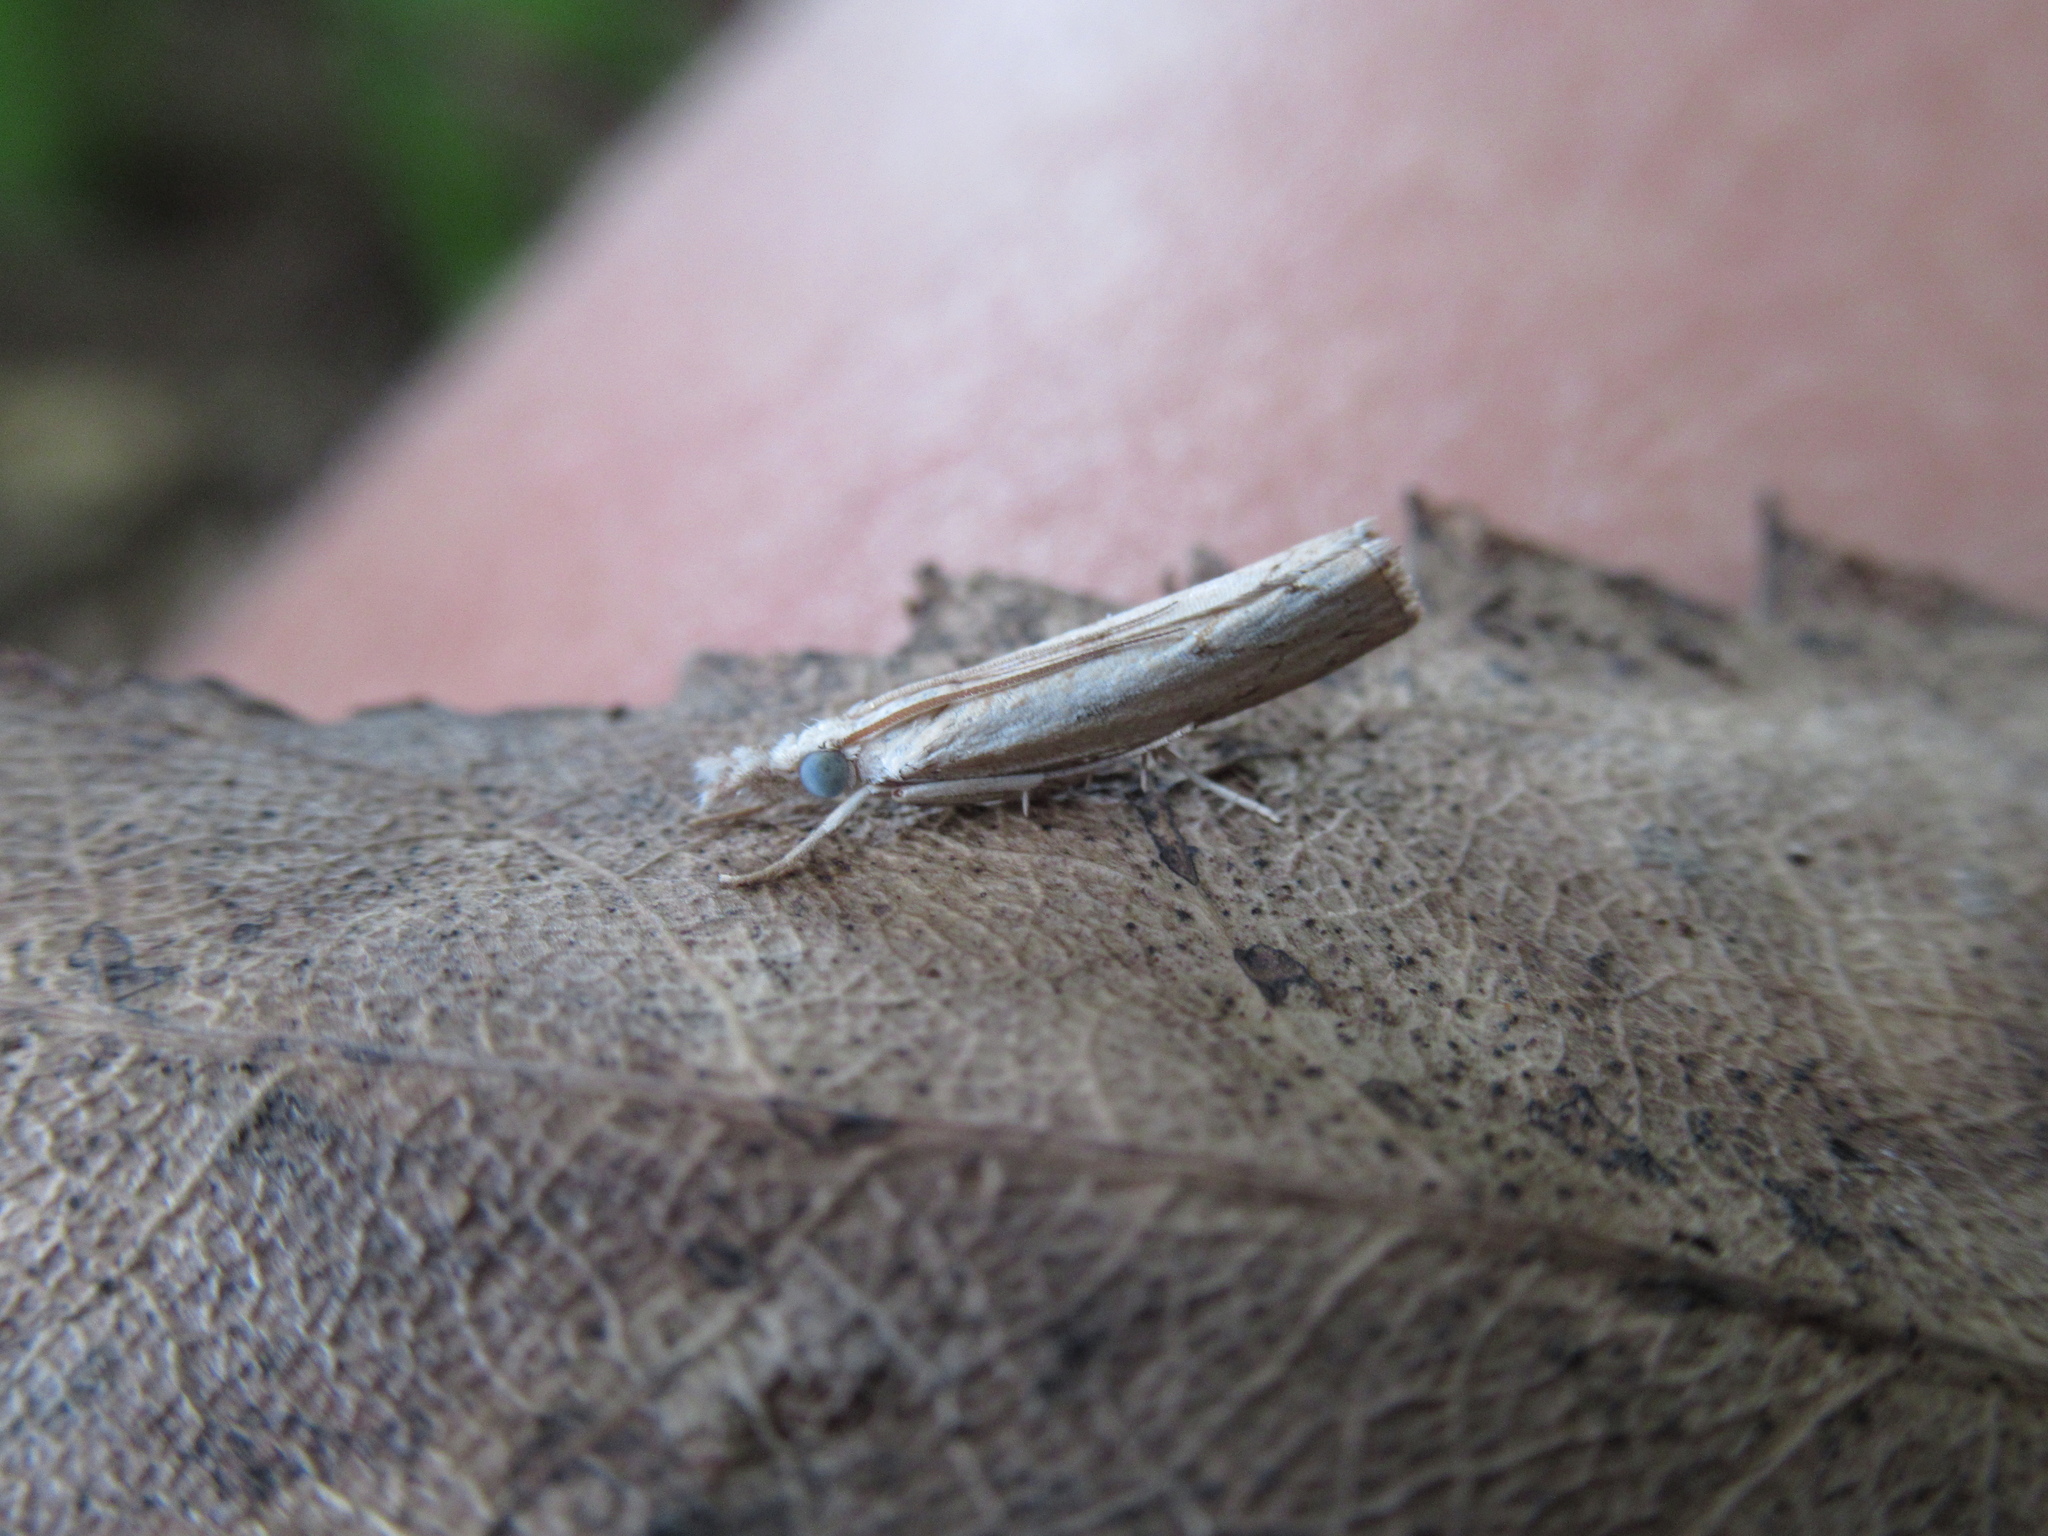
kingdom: Animalia
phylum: Arthropoda
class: Insecta
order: Lepidoptera
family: Crambidae
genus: Culladia
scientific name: Culladia cuneiferellus
